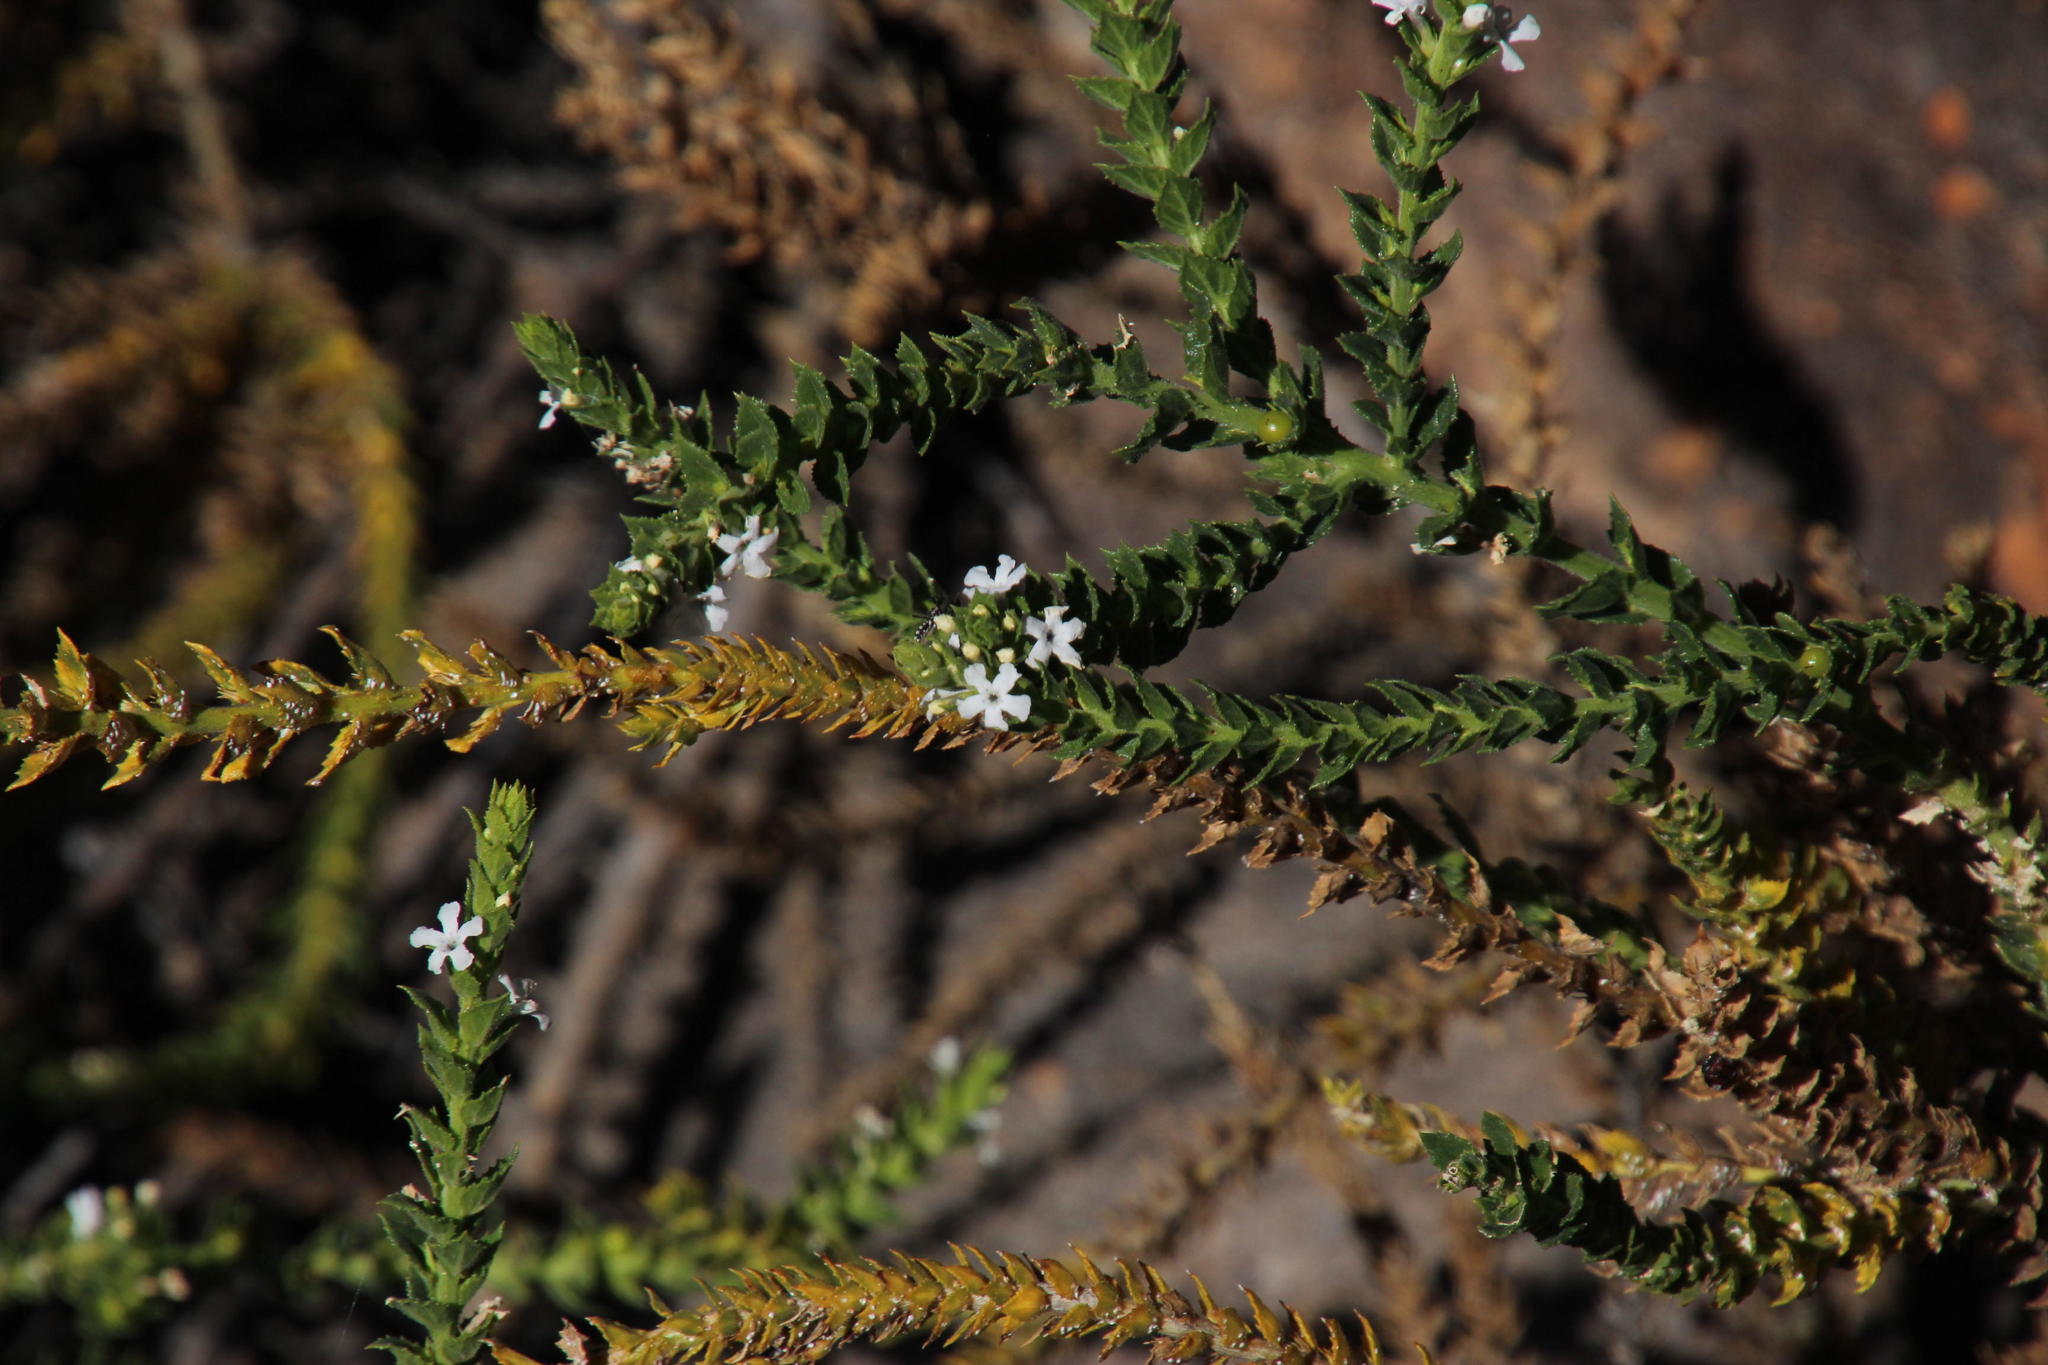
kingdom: Plantae
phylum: Tracheophyta
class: Magnoliopsida
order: Lamiales
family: Scrophulariaceae
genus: Oftia
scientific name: Oftia africana
